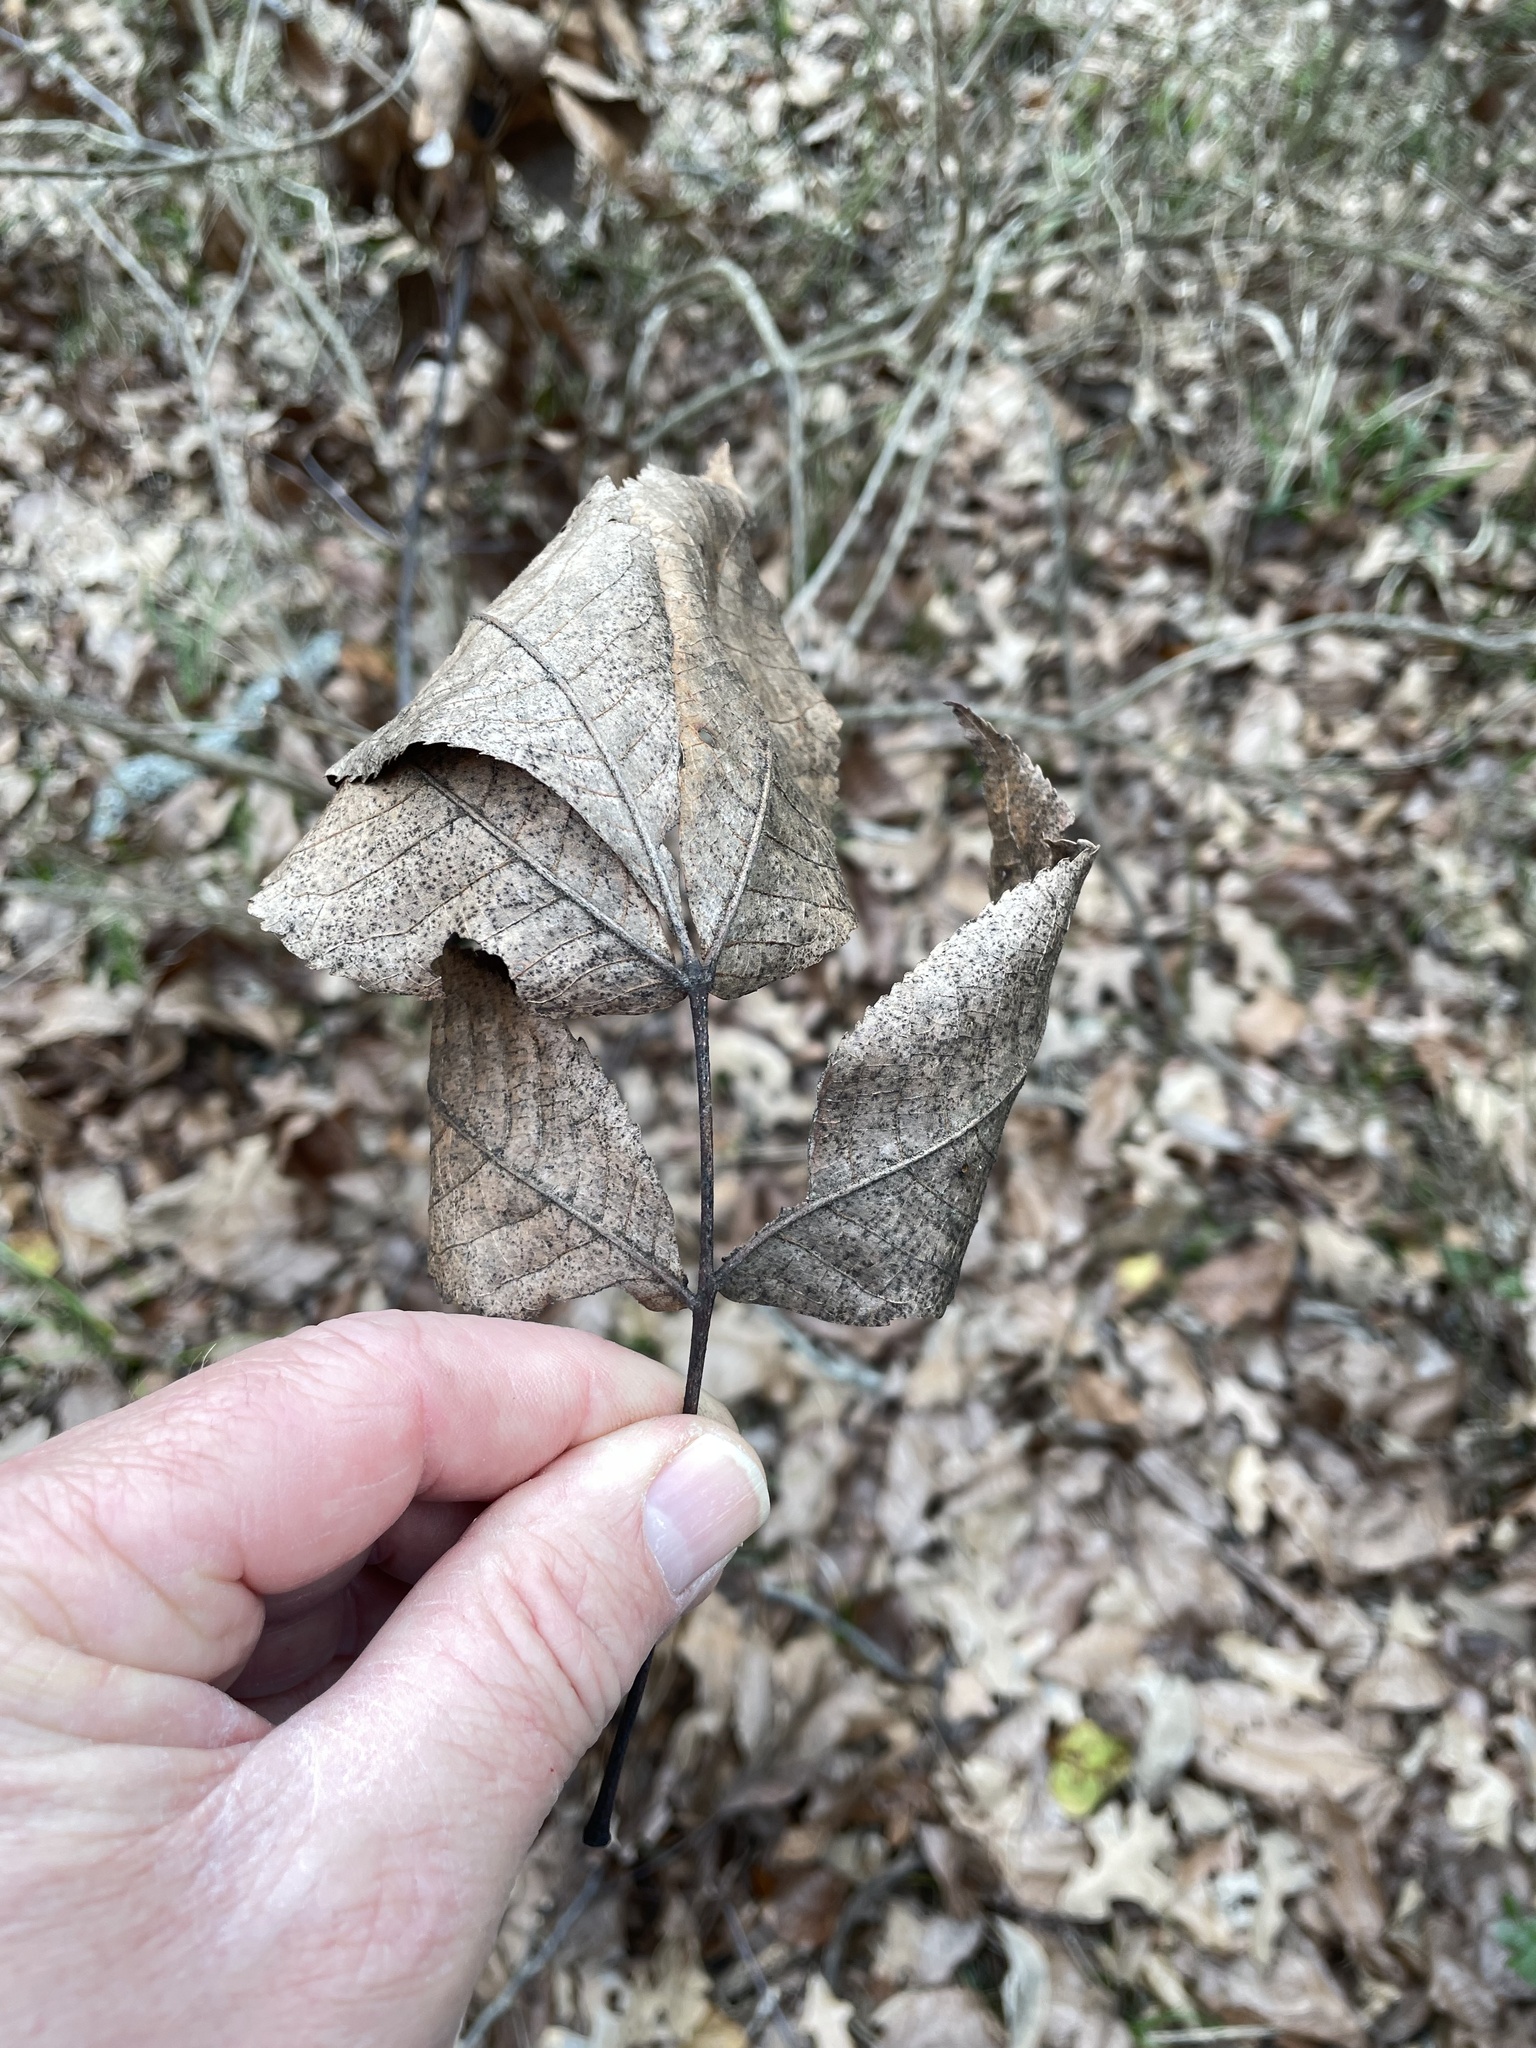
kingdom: Plantae
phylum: Tracheophyta
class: Magnoliopsida
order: Fagales
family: Juglandaceae
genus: Carya
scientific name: Carya texana
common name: Black hickory
